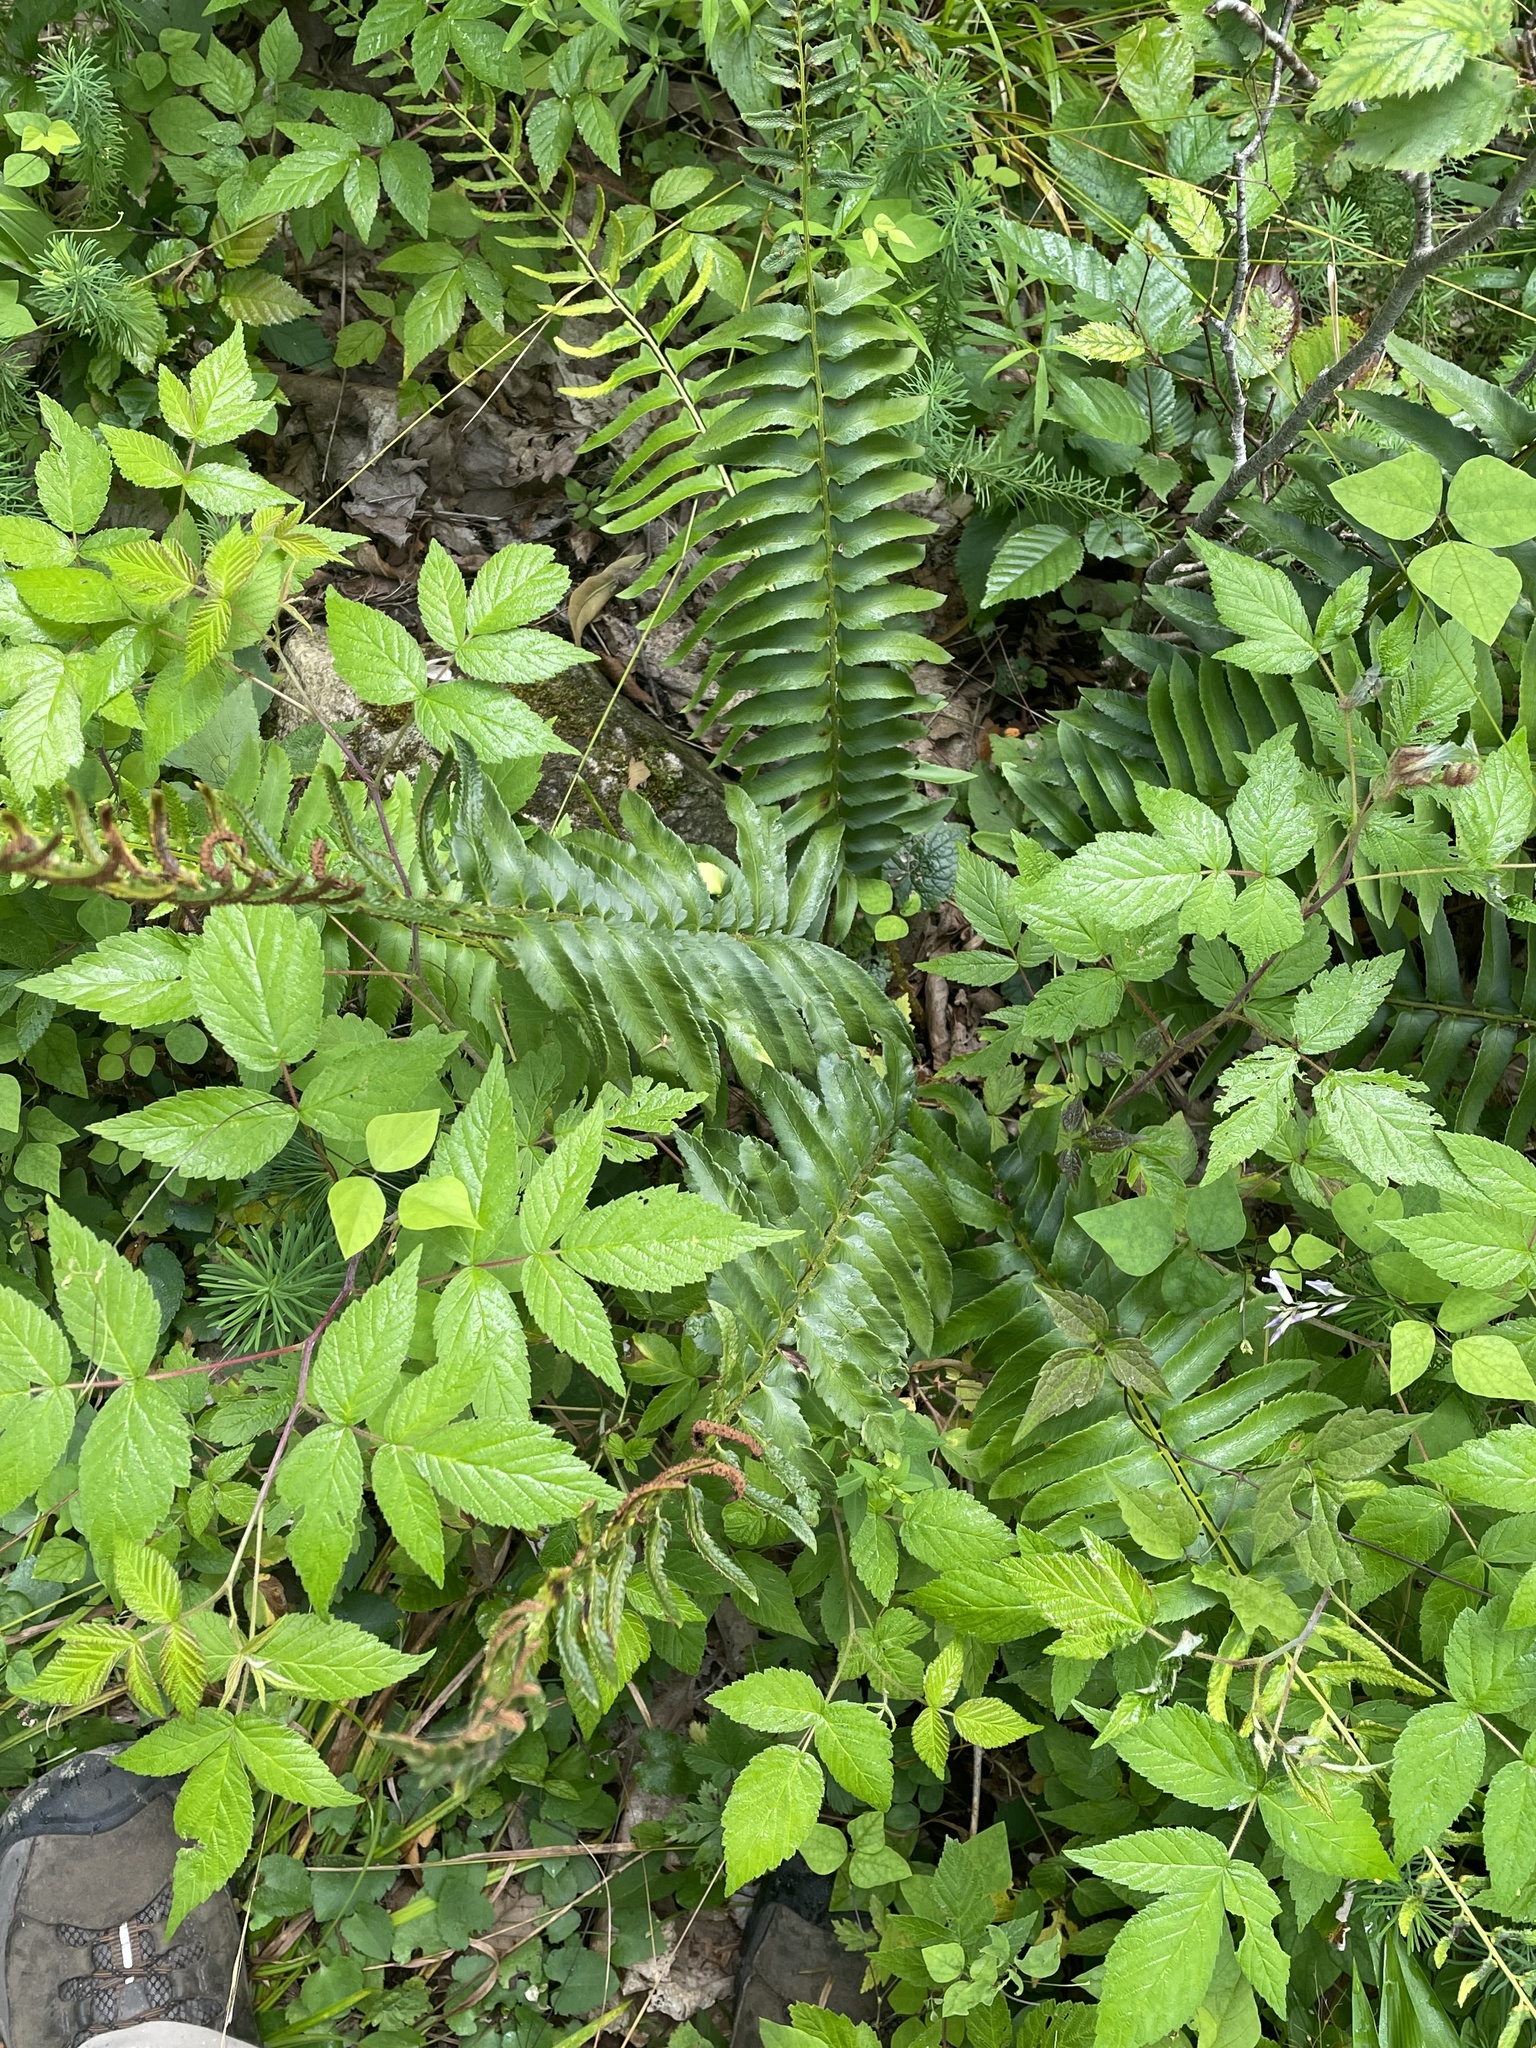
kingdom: Plantae
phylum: Tracheophyta
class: Polypodiopsida
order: Polypodiales
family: Dryopteridaceae
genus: Polystichum
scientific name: Polystichum acrostichoides
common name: Christmas fern
